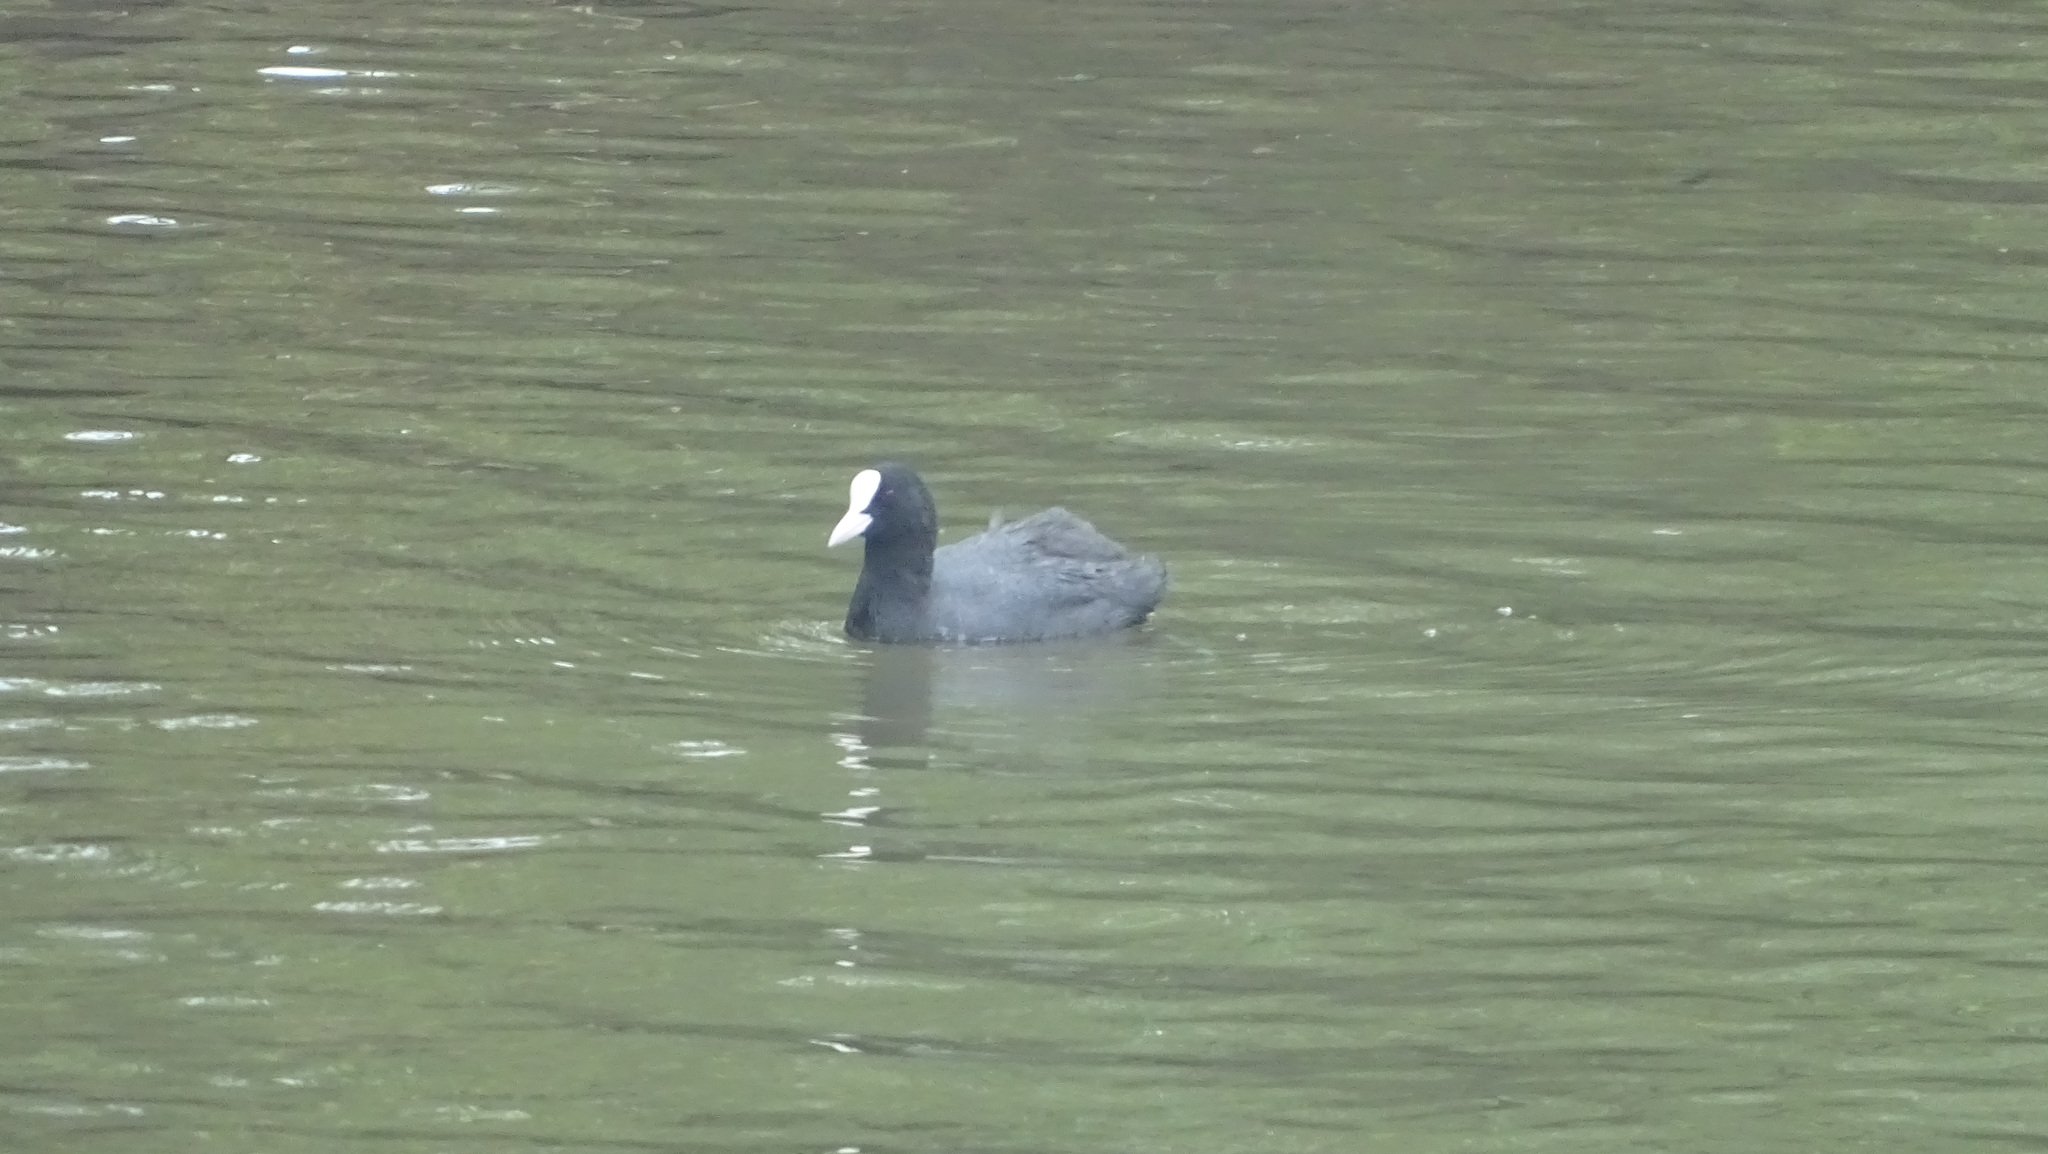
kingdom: Animalia
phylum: Chordata
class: Aves
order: Gruiformes
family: Rallidae
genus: Fulica
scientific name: Fulica atra
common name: Eurasian coot
